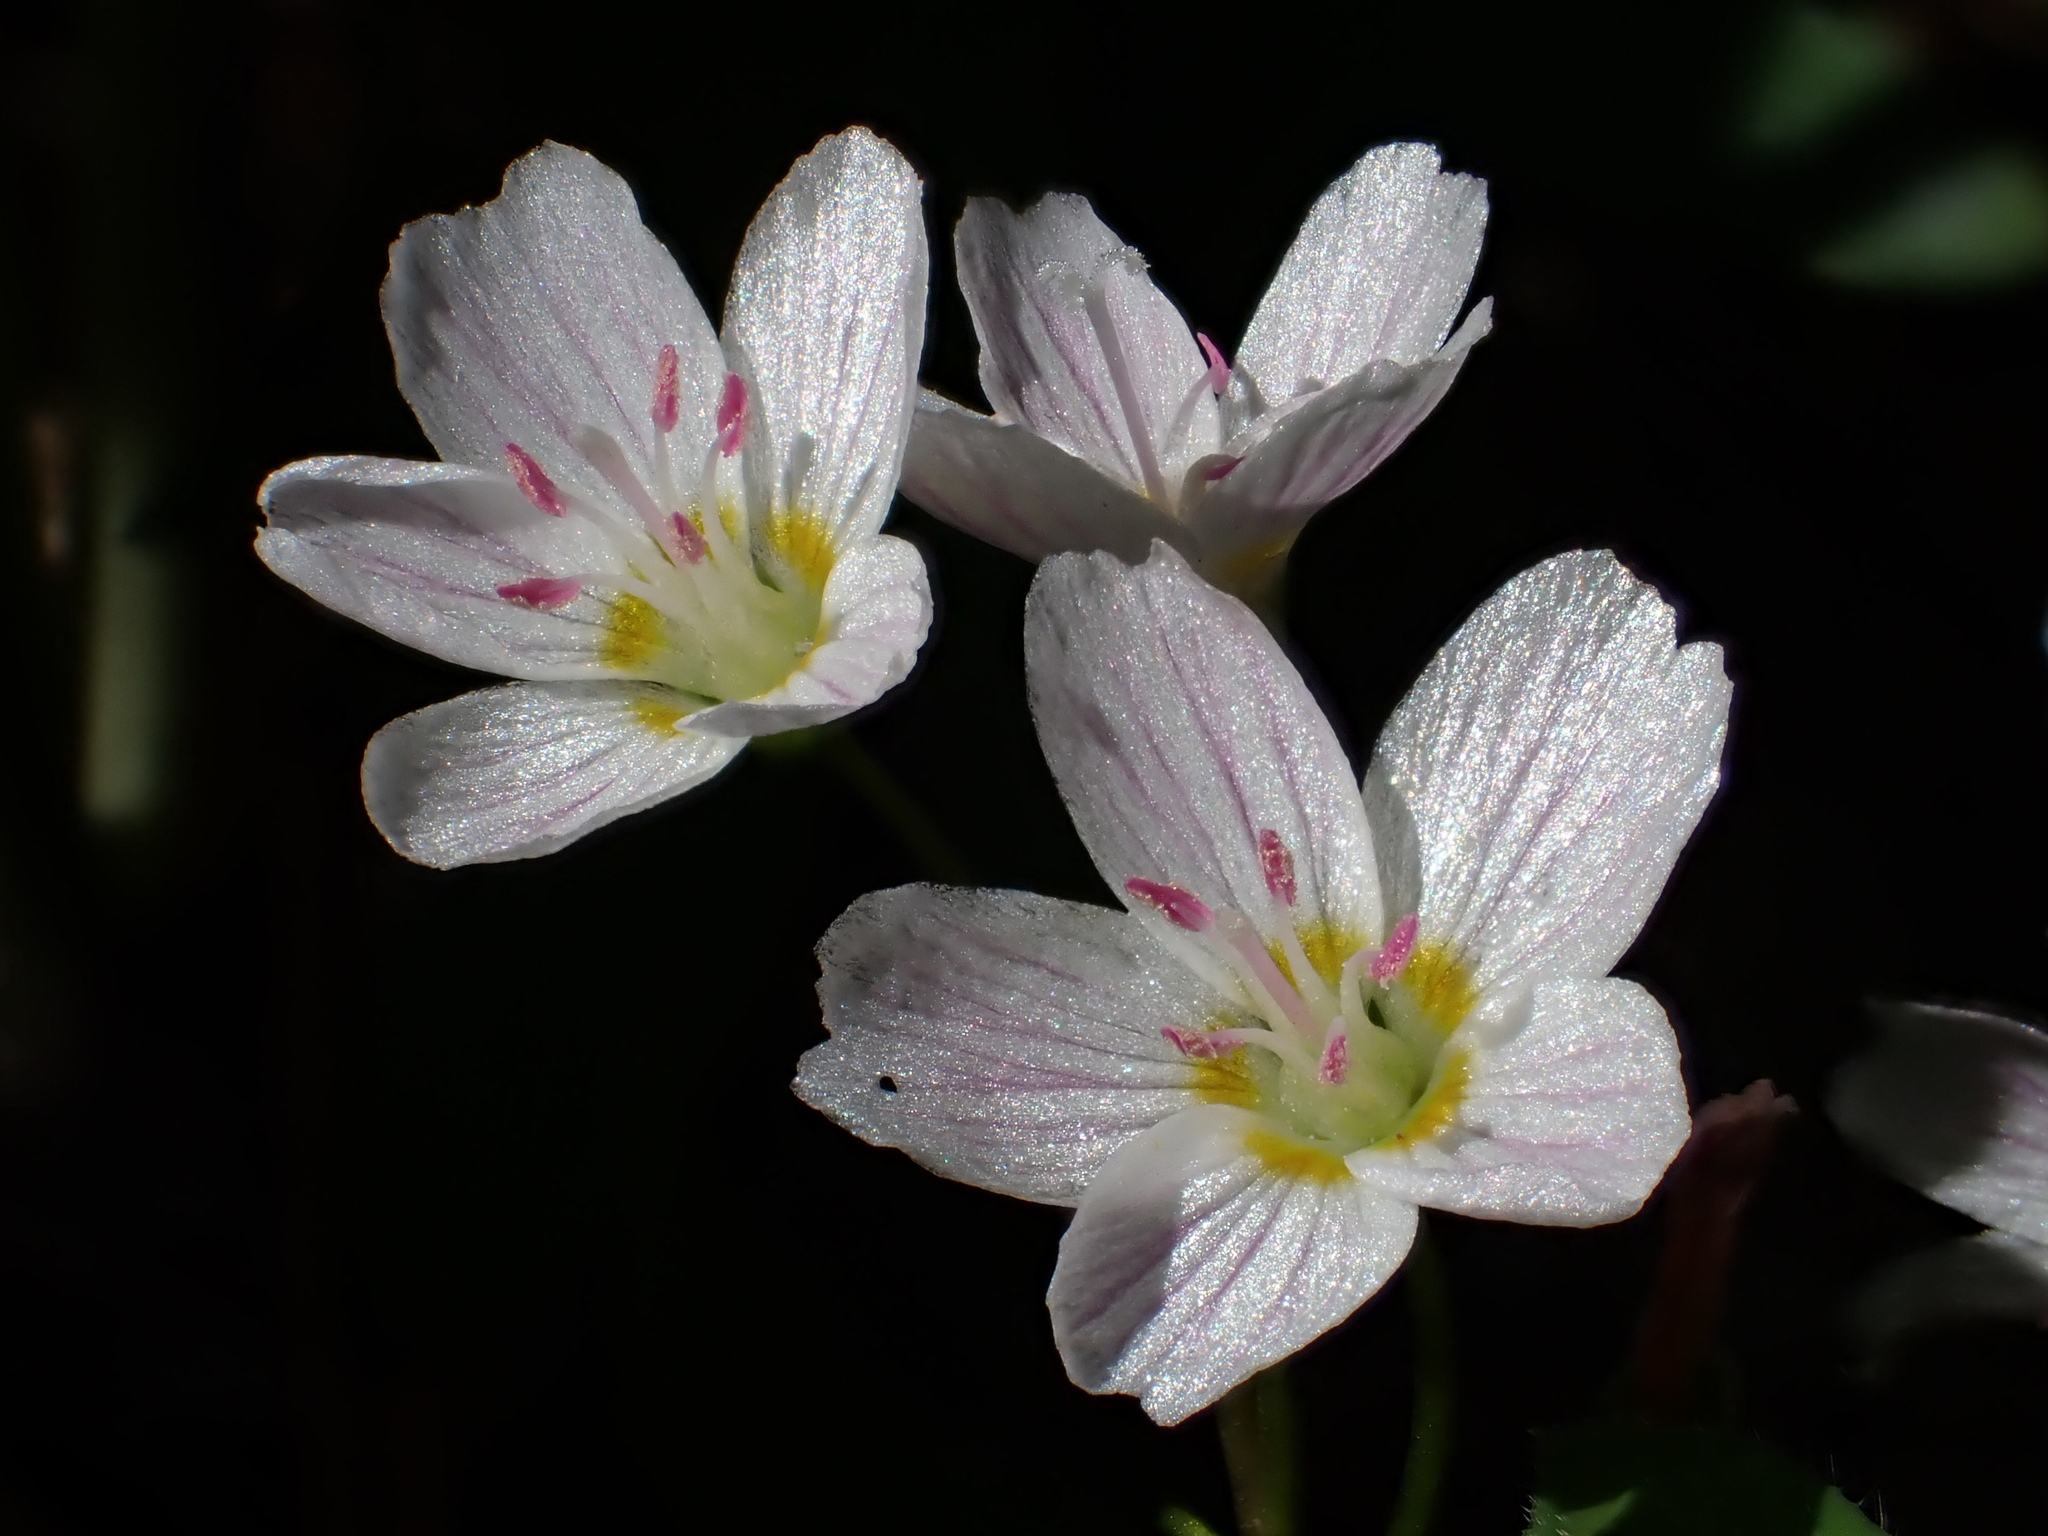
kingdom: Plantae
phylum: Tracheophyta
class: Magnoliopsida
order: Caryophyllales
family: Montiaceae
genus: Claytonia
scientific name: Claytonia lanceolata
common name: Western spring-beauty
